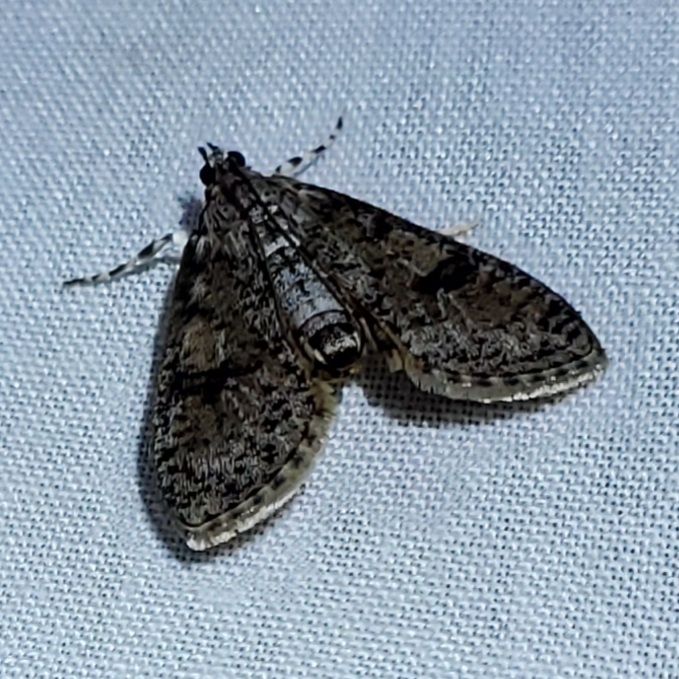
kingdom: Animalia
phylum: Arthropoda
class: Insecta
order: Lepidoptera
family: Crambidae
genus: Palpita
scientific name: Palpita magniferalis
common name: Splendid palpita moth
